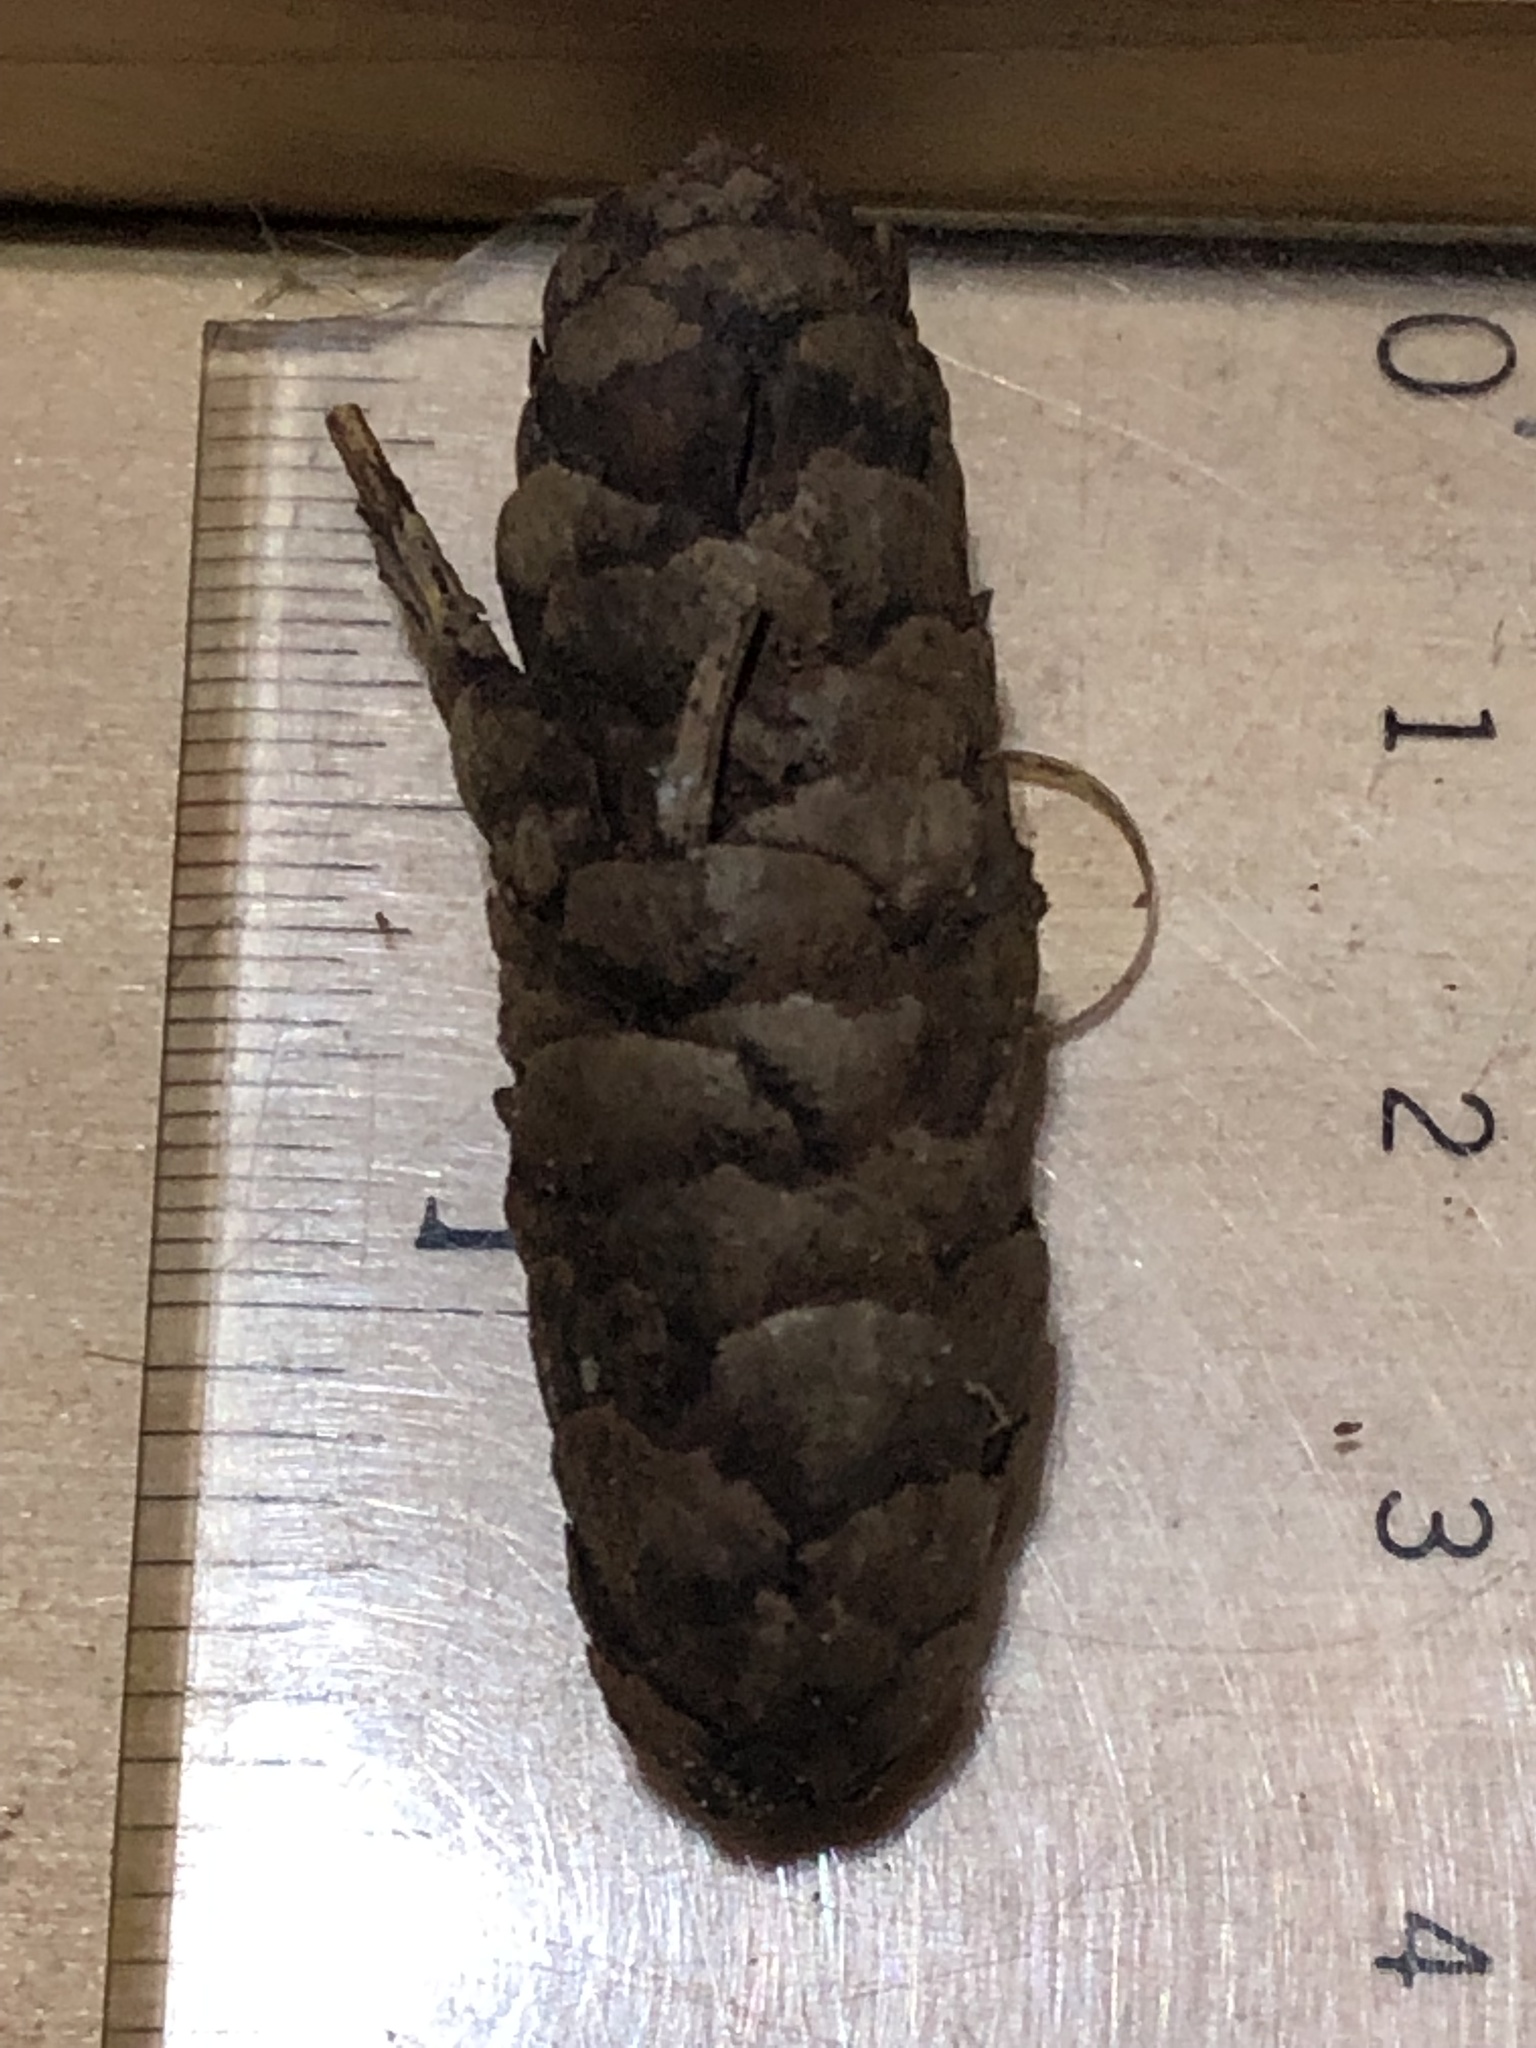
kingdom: Plantae
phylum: Tracheophyta
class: Pinopsida
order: Pinales
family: Pinaceae
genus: Picea
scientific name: Picea glauca
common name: White spruce
